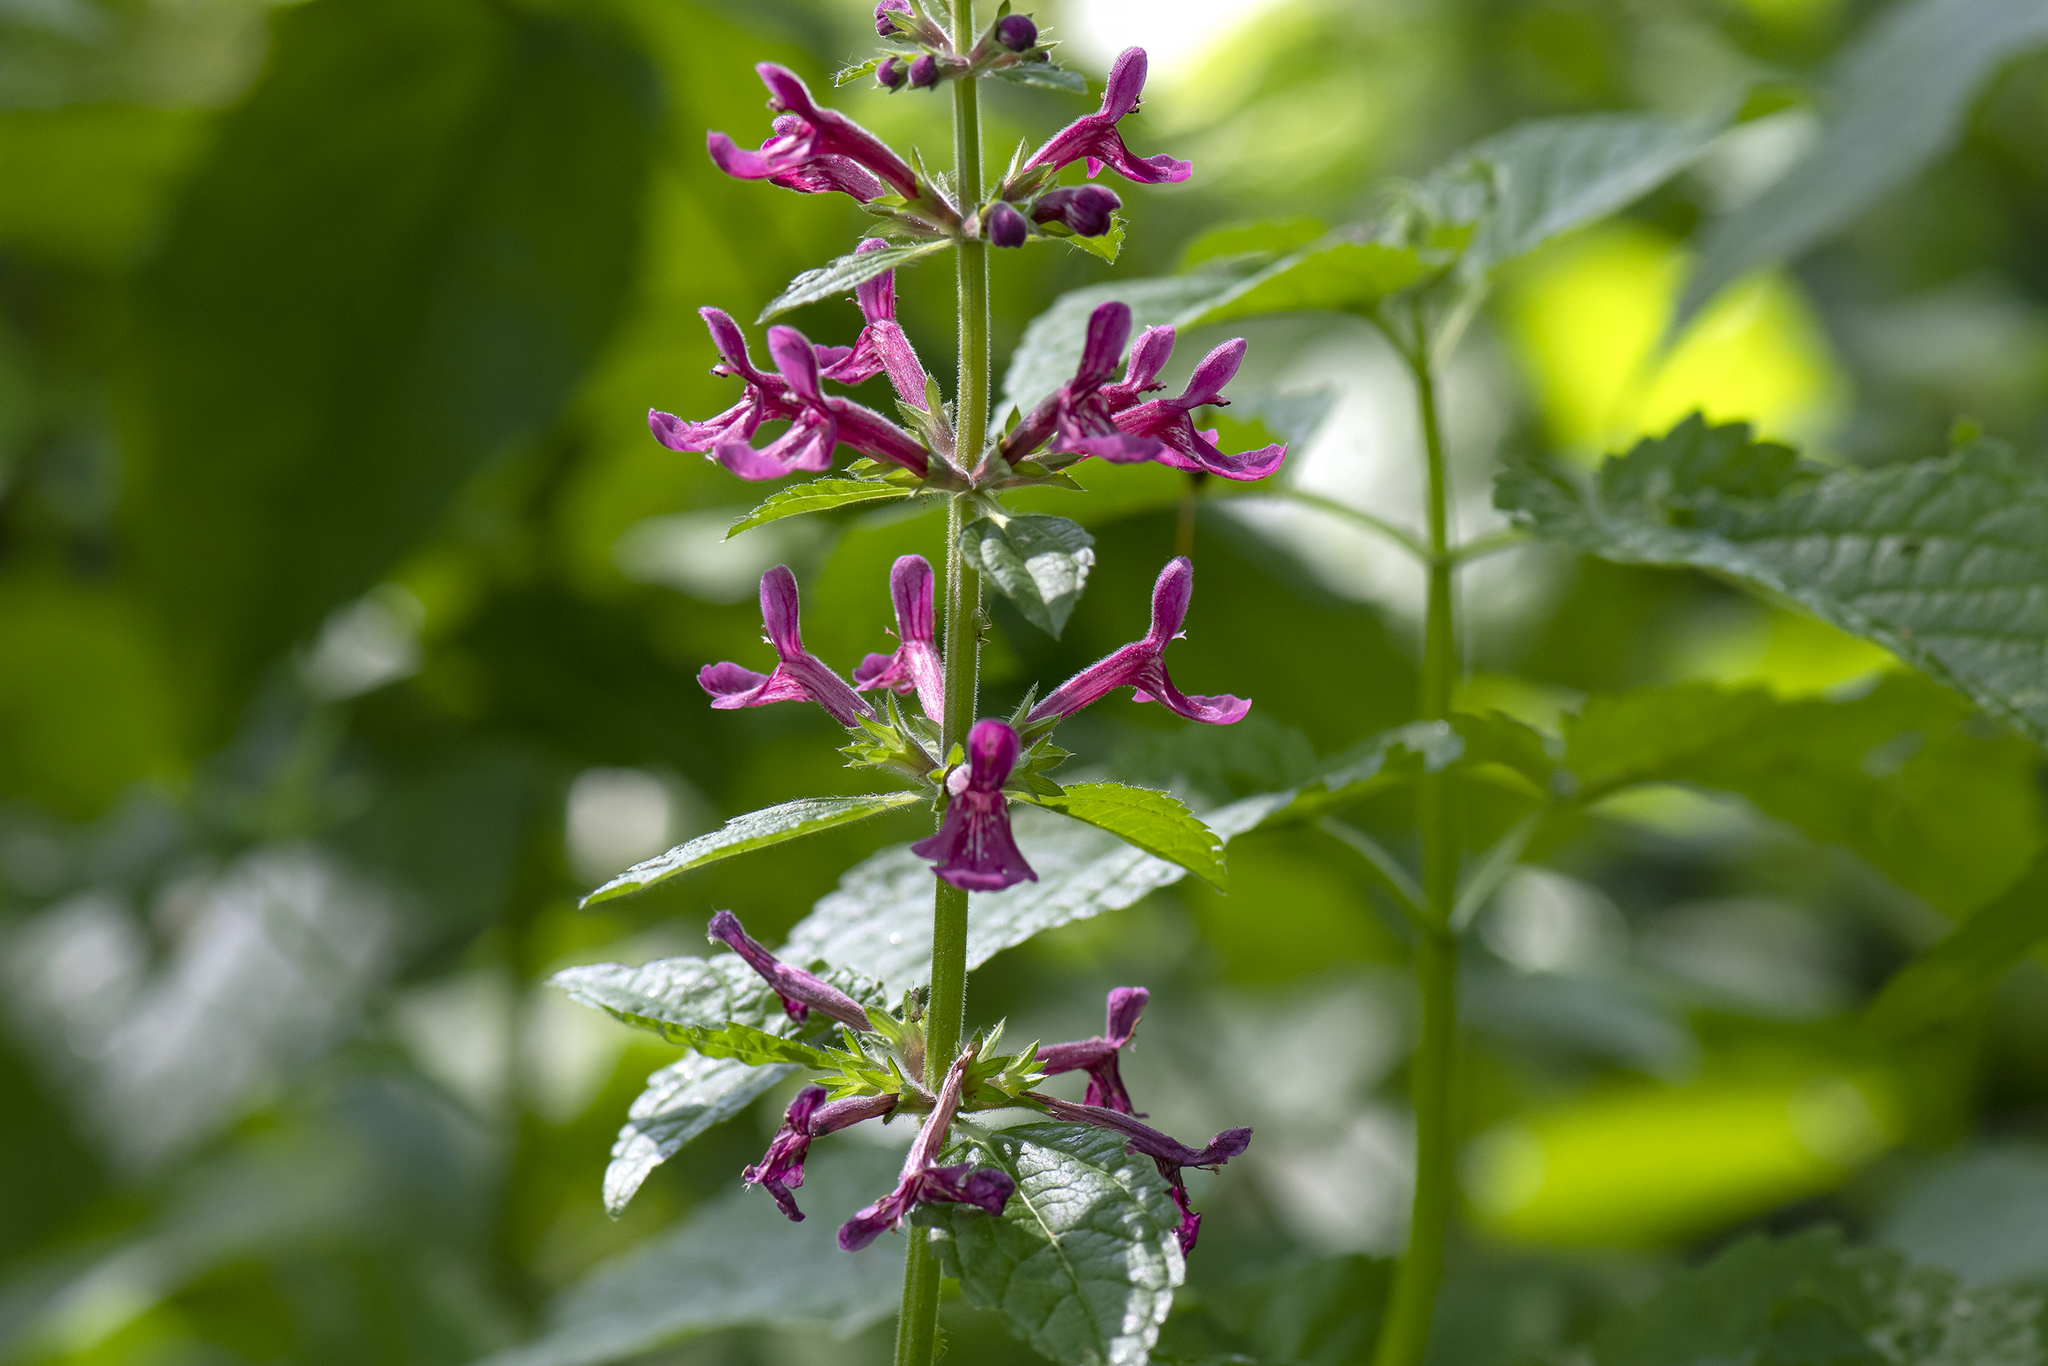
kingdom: Plantae
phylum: Tracheophyta
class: Magnoliopsida
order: Lamiales
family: Lamiaceae
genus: Stachys
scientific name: Stachys chamissonis
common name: Coastal hedge-nettle
